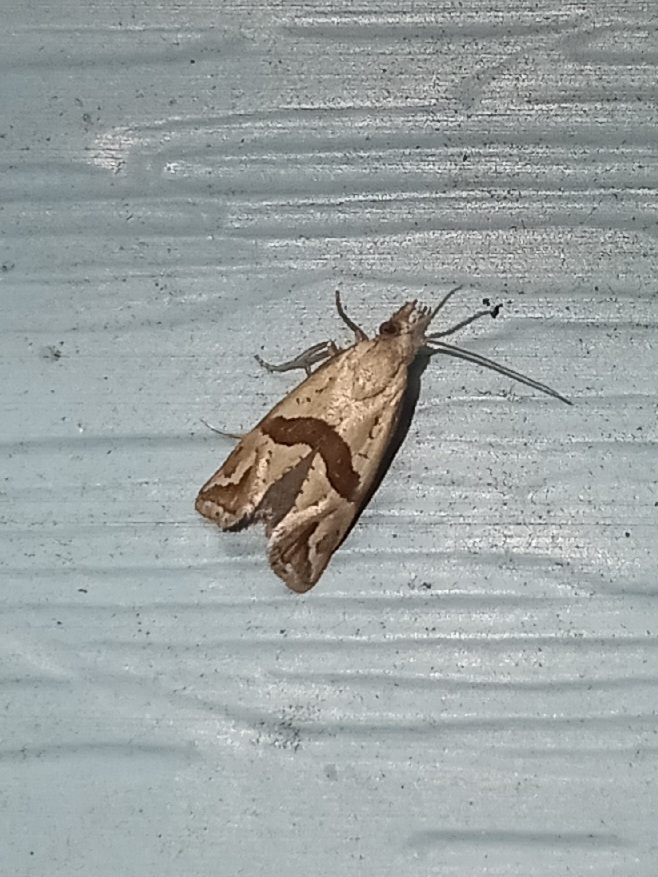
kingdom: Animalia
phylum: Arthropoda
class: Insecta
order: Lepidoptera
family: Tortricidae
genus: Eugnosta
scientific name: Eugnosta sartana
